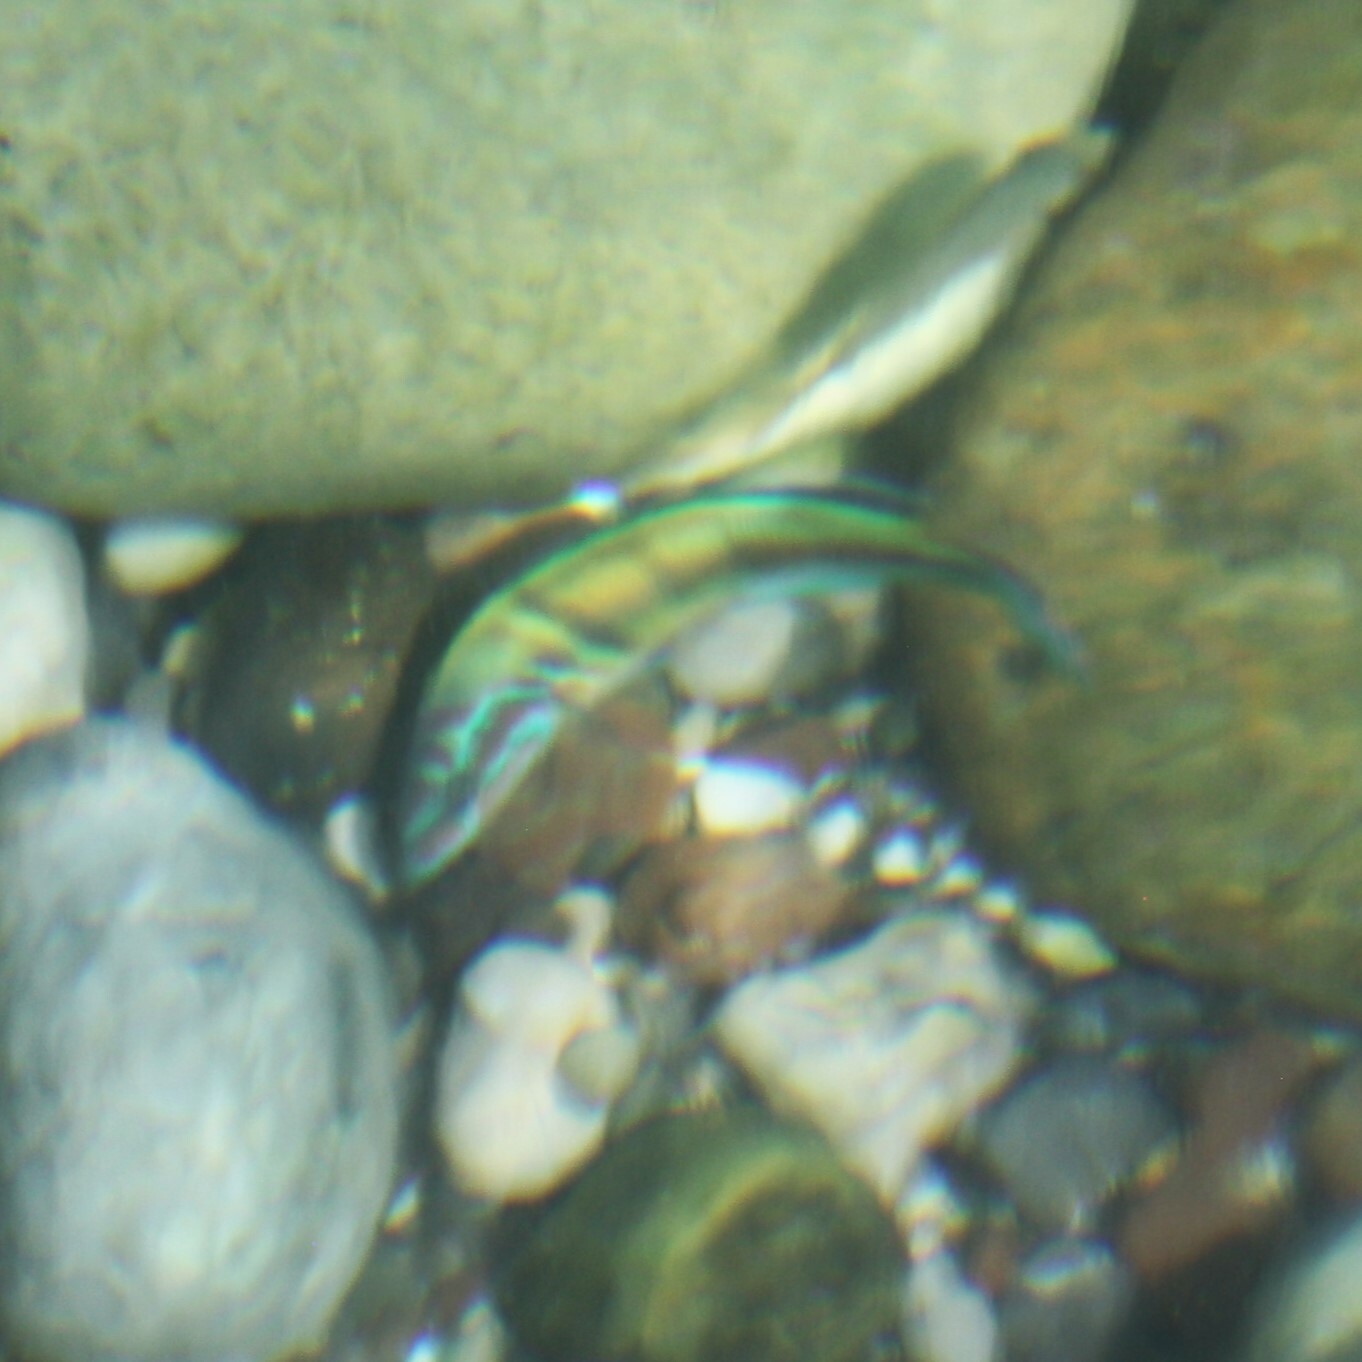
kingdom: Animalia
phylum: Chordata
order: Perciformes
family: Labridae
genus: Thalassoma
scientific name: Thalassoma pavo
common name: Ornate wrasse
